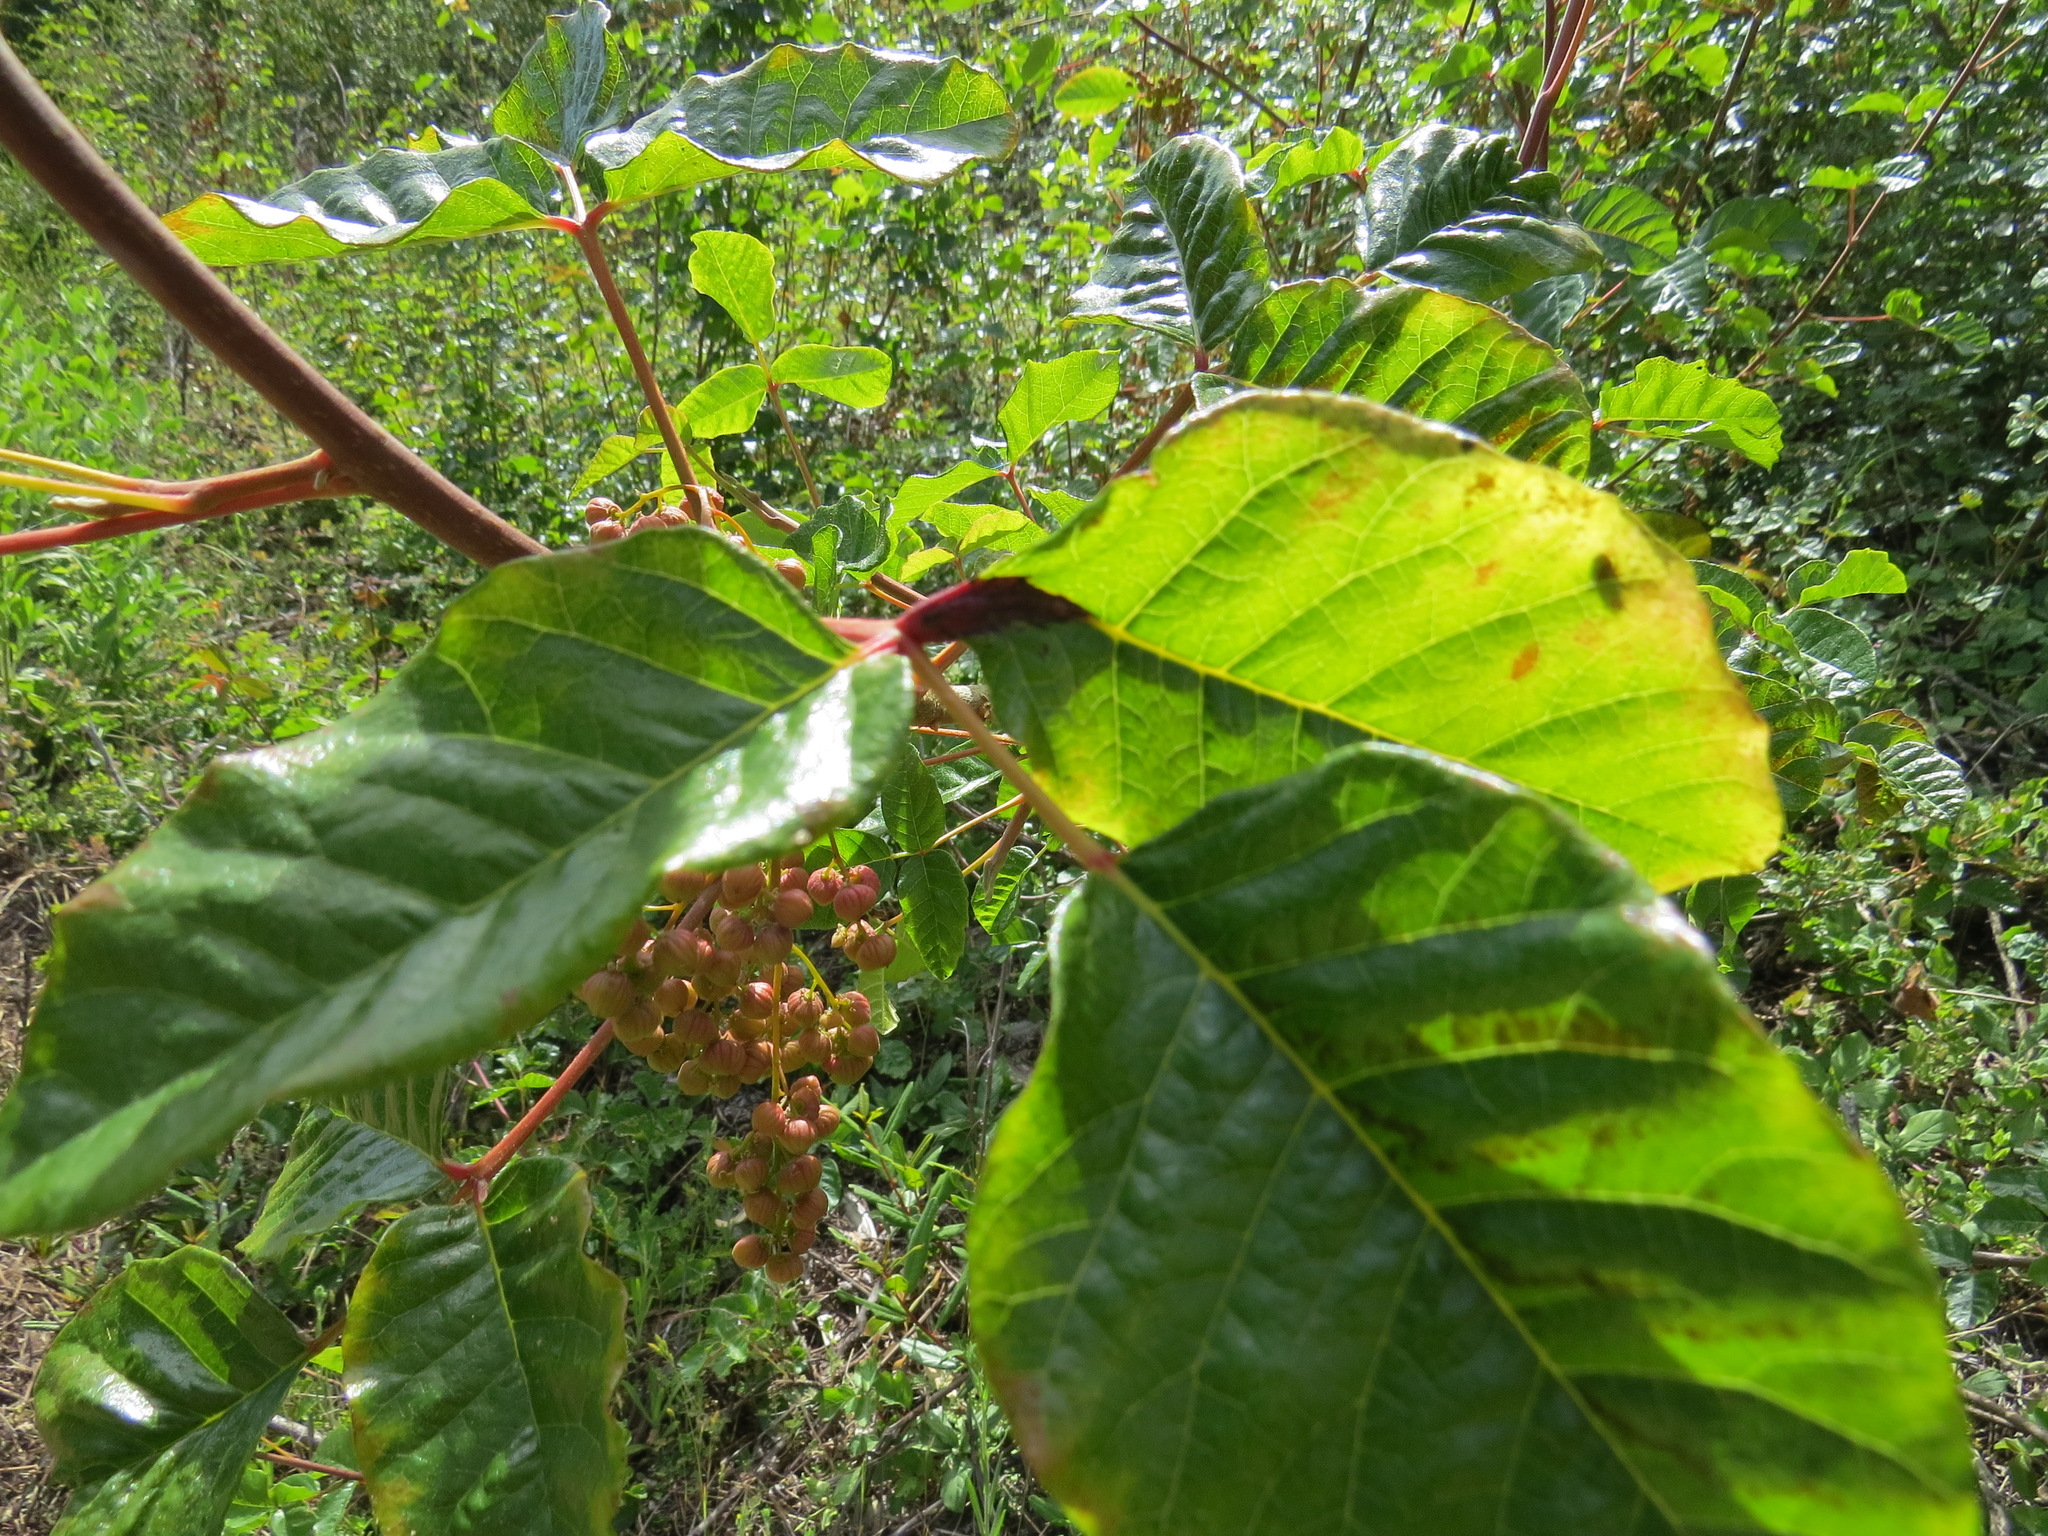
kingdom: Plantae
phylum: Tracheophyta
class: Magnoliopsida
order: Sapindales
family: Anacardiaceae
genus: Toxicodendron
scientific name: Toxicodendron diversilobum
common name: Pacific poison-oak
